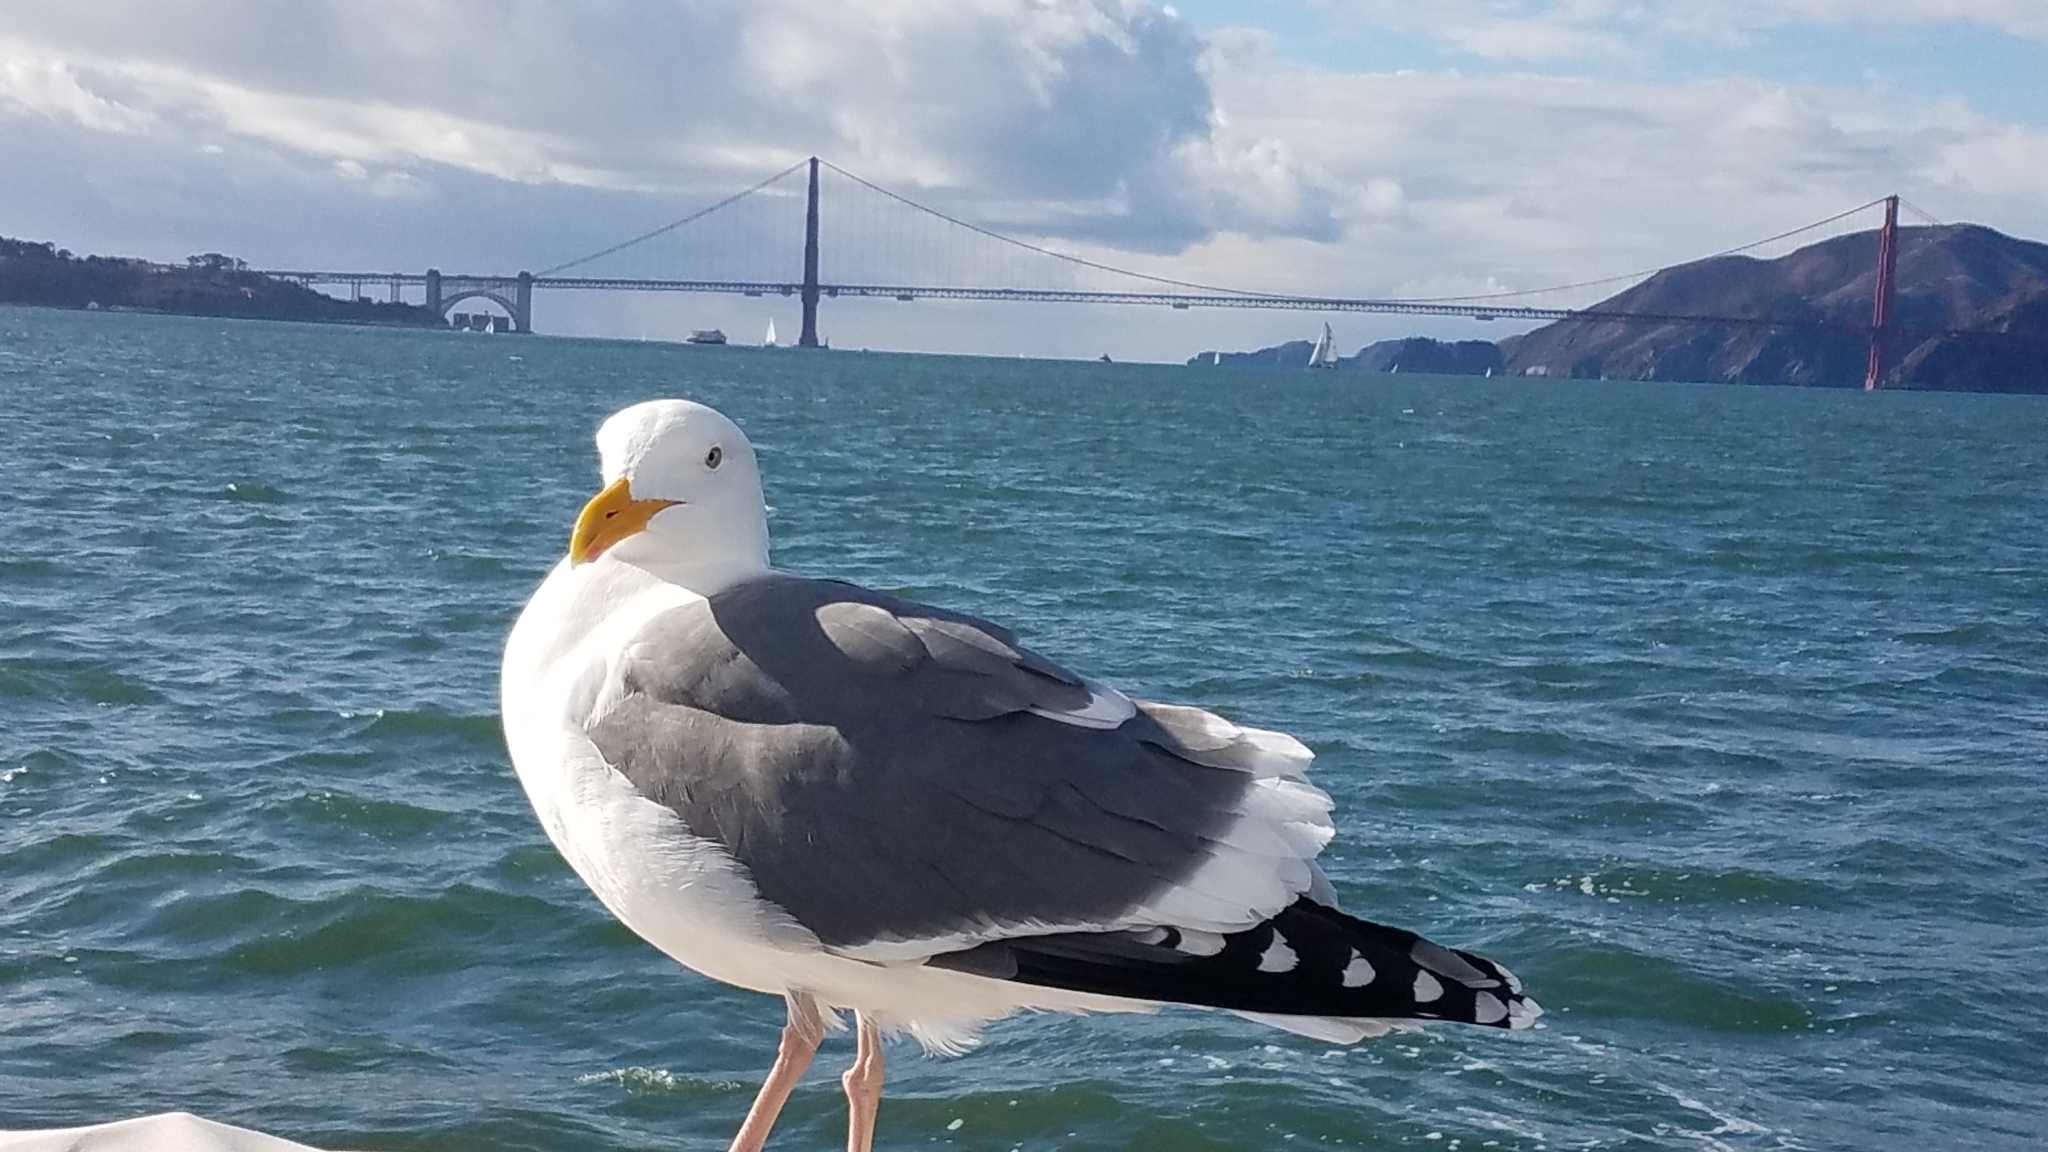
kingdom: Animalia
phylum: Chordata
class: Aves
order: Charadriiformes
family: Laridae
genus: Larus
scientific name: Larus occidentalis
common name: Western gull
